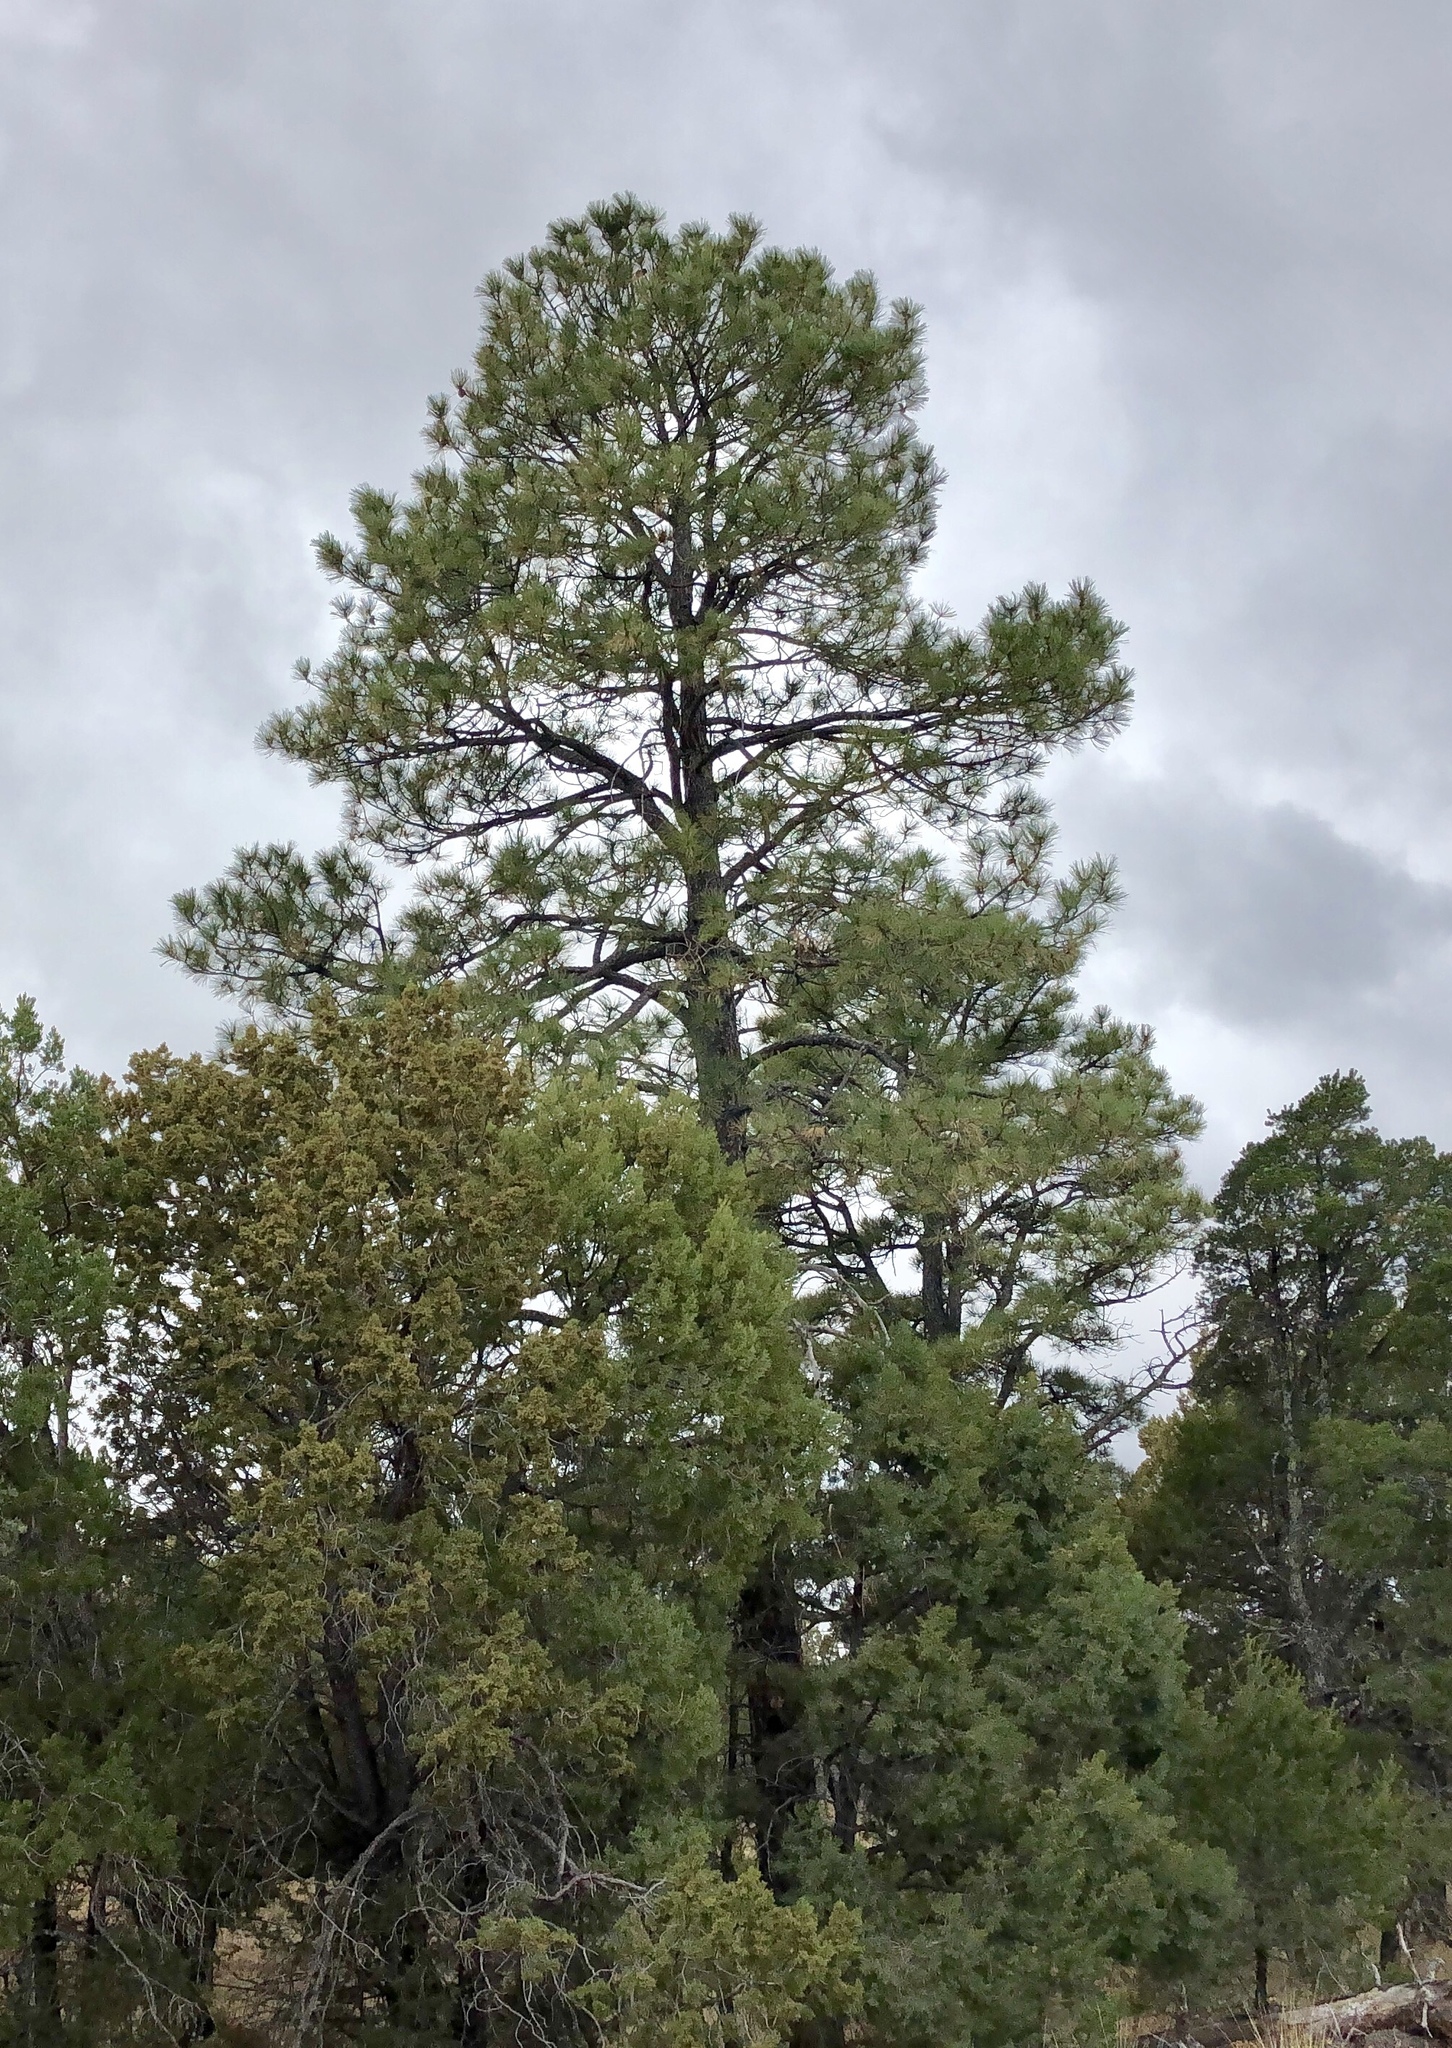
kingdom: Plantae
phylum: Tracheophyta
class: Pinopsida
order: Pinales
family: Pinaceae
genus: Pinus
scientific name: Pinus ponderosa
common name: Western yellow-pine
